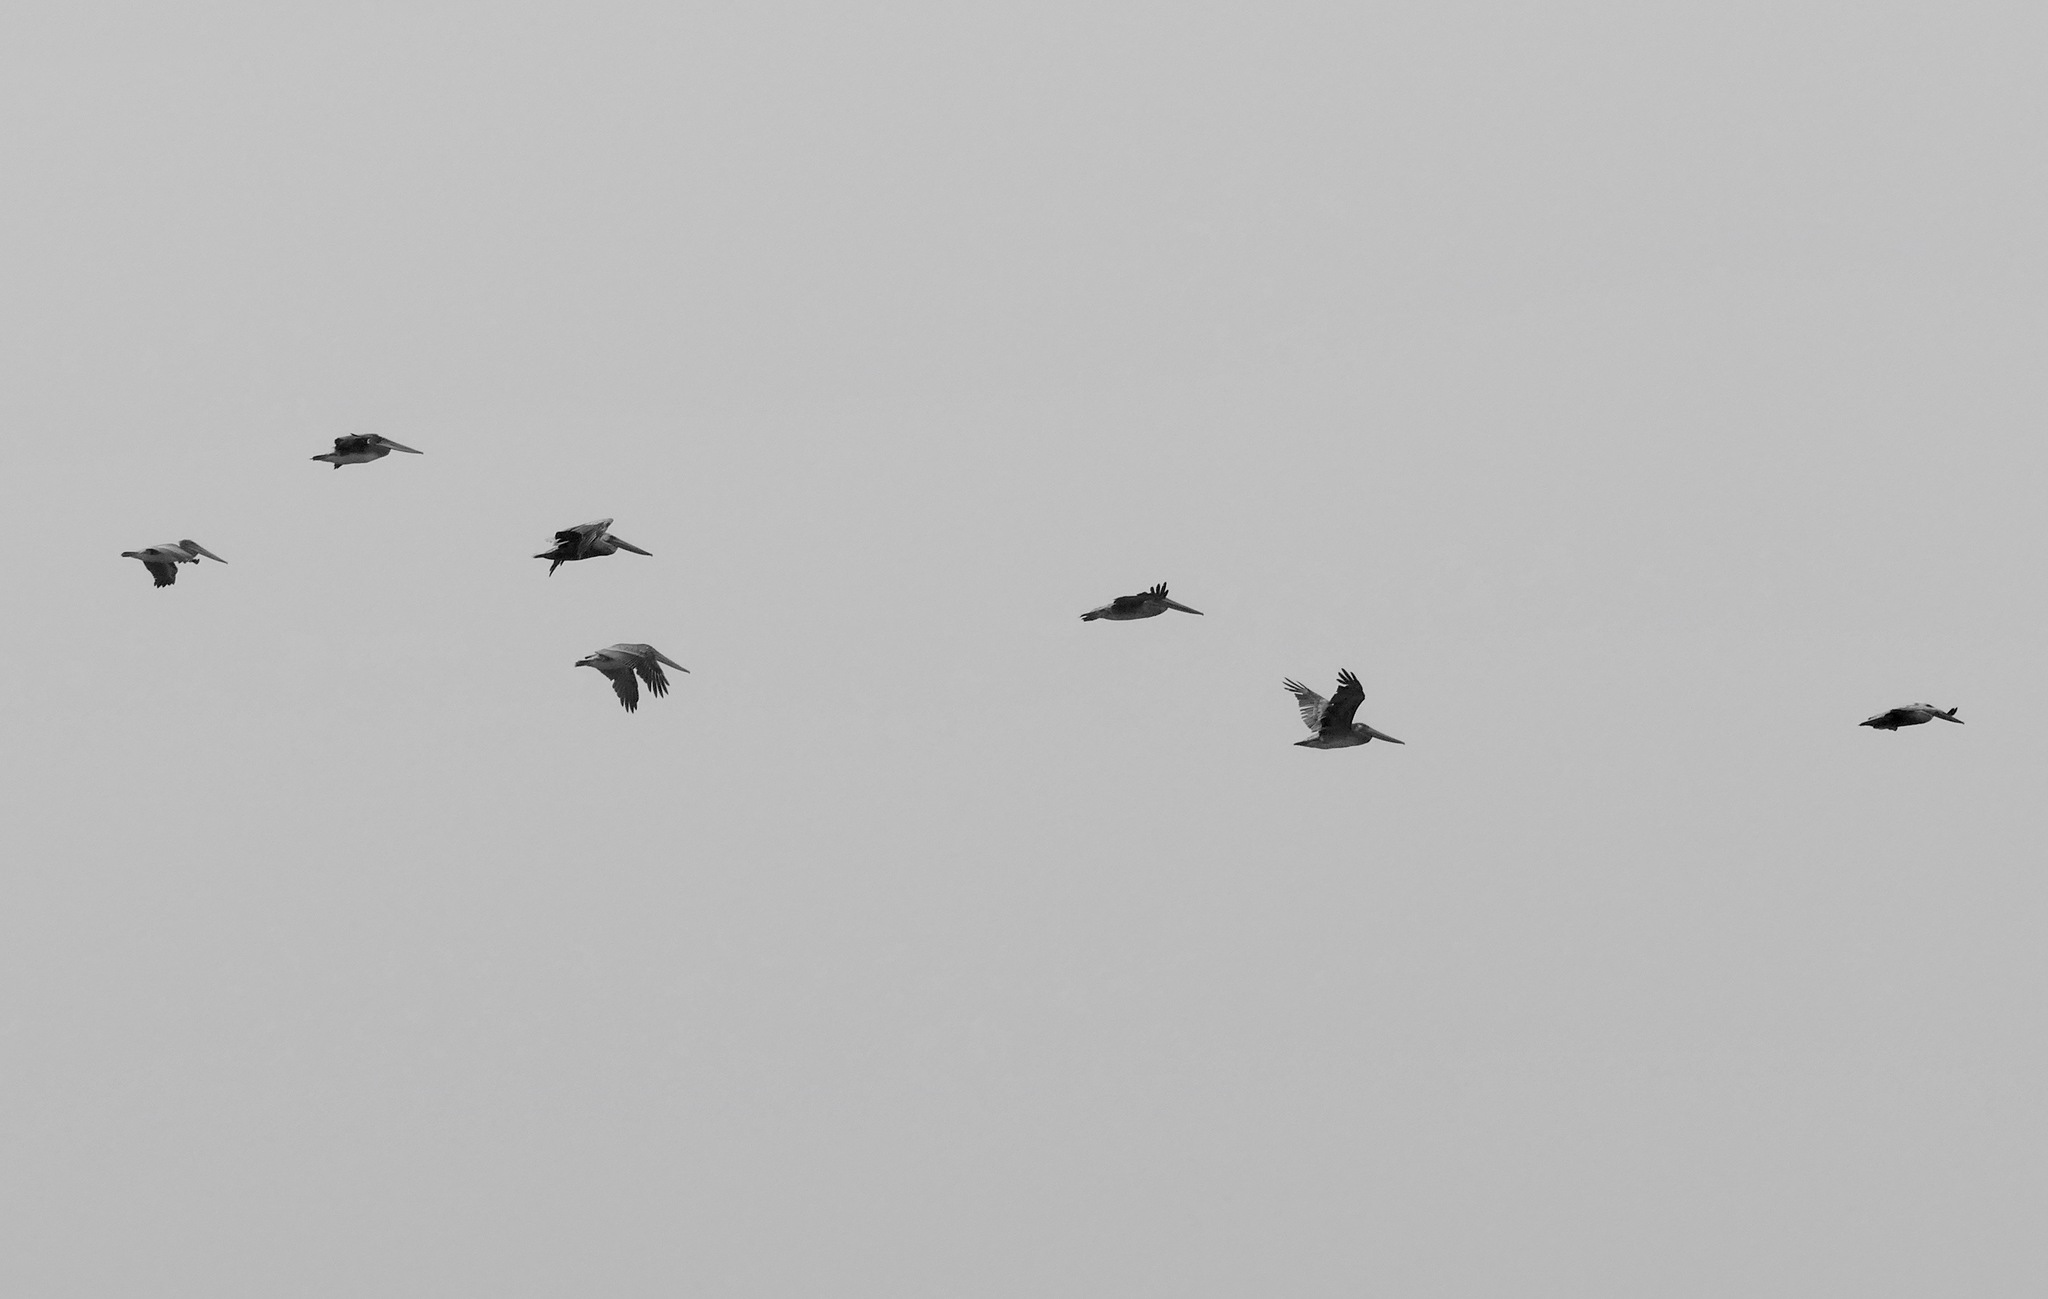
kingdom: Animalia
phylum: Chordata
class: Aves
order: Pelecaniformes
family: Pelecanidae
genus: Pelecanus
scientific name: Pelecanus occidentalis
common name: Brown pelican
